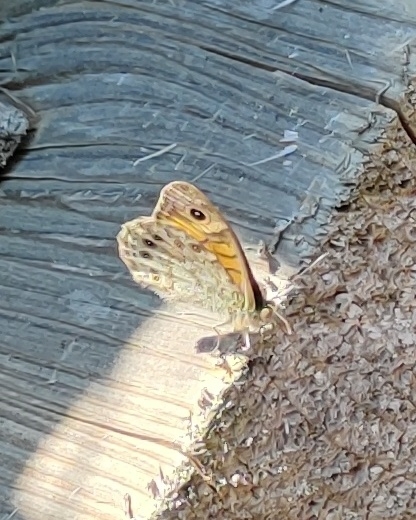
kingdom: Animalia
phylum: Arthropoda
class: Insecta
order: Lepidoptera
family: Nymphalidae
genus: Pararge
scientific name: Pararge Lasiommata megera
